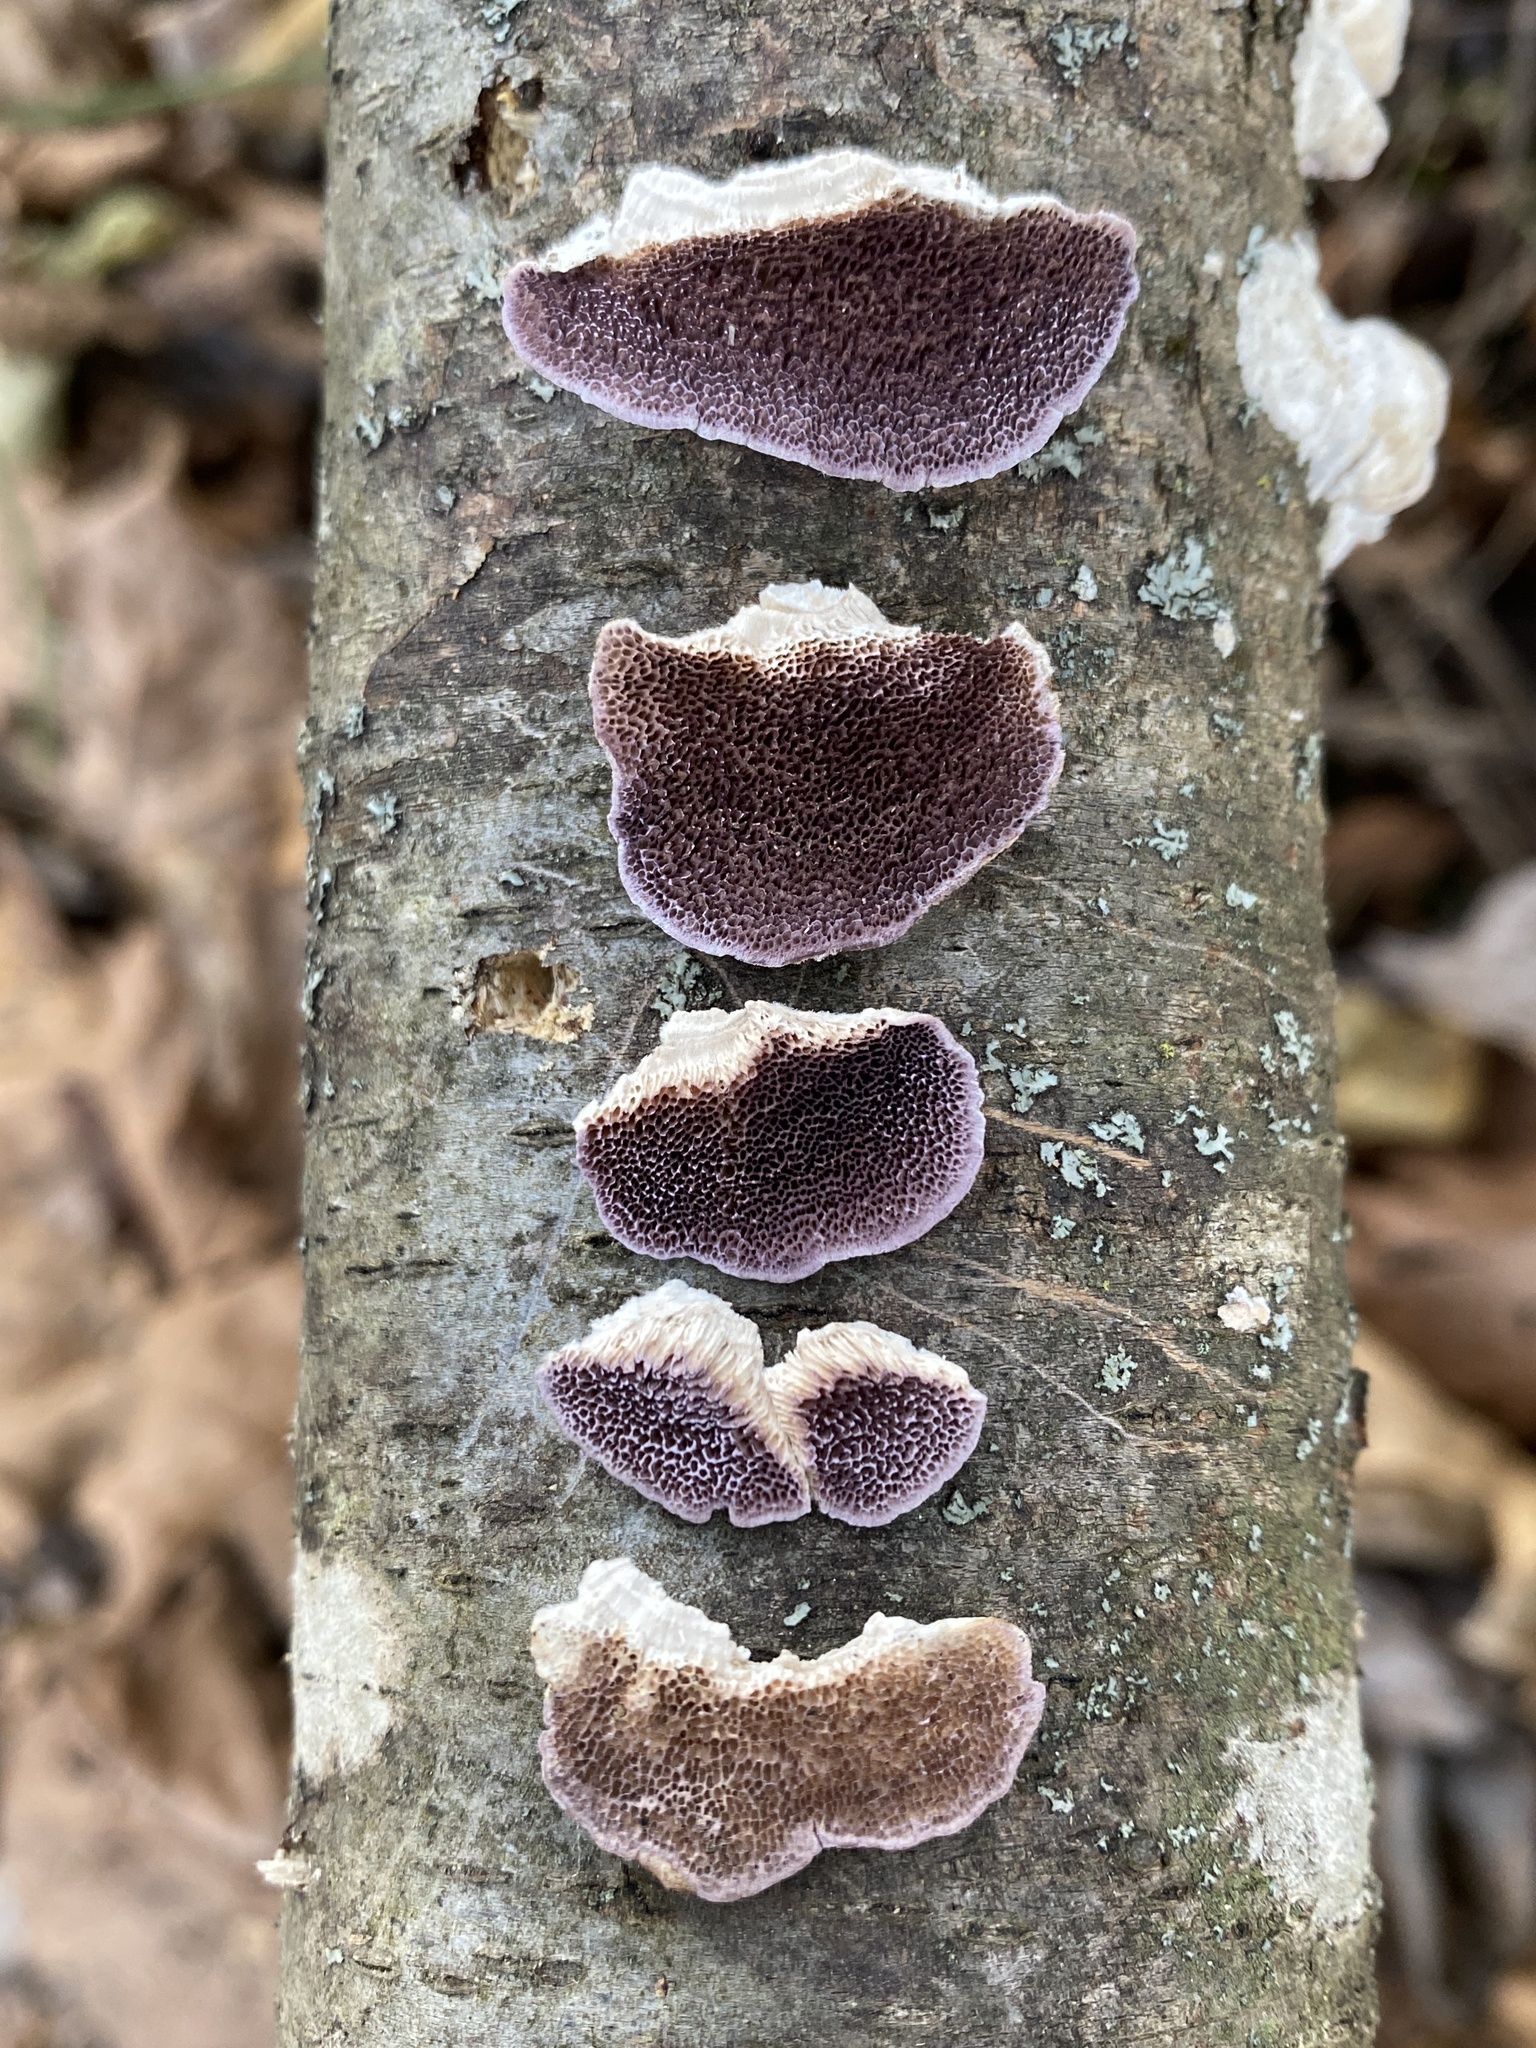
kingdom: Fungi
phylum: Basidiomycota
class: Agaricomycetes
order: Hymenochaetales
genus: Trichaptum
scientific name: Trichaptum biforme
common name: Violet-toothed polypore
